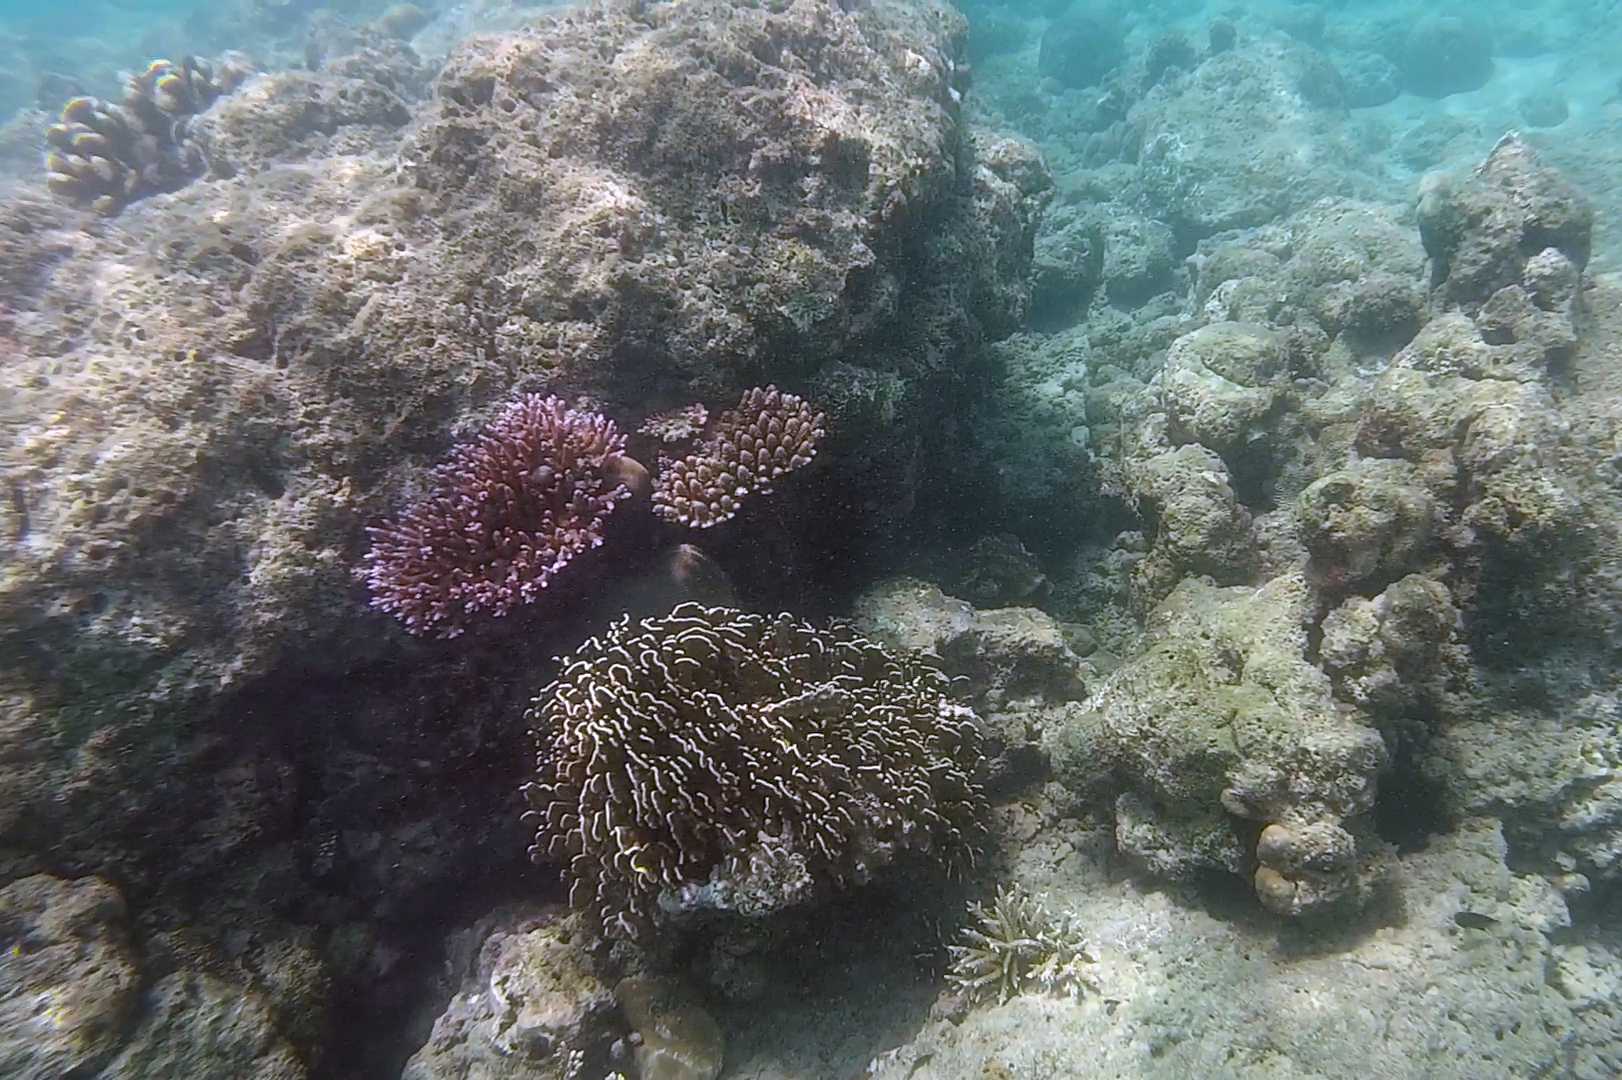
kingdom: Animalia
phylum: Cnidaria
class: Anthozoa
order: Scleralcyonacea
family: Helioporidae
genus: Heliopora
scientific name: Heliopora coerulea
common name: Blue coral
